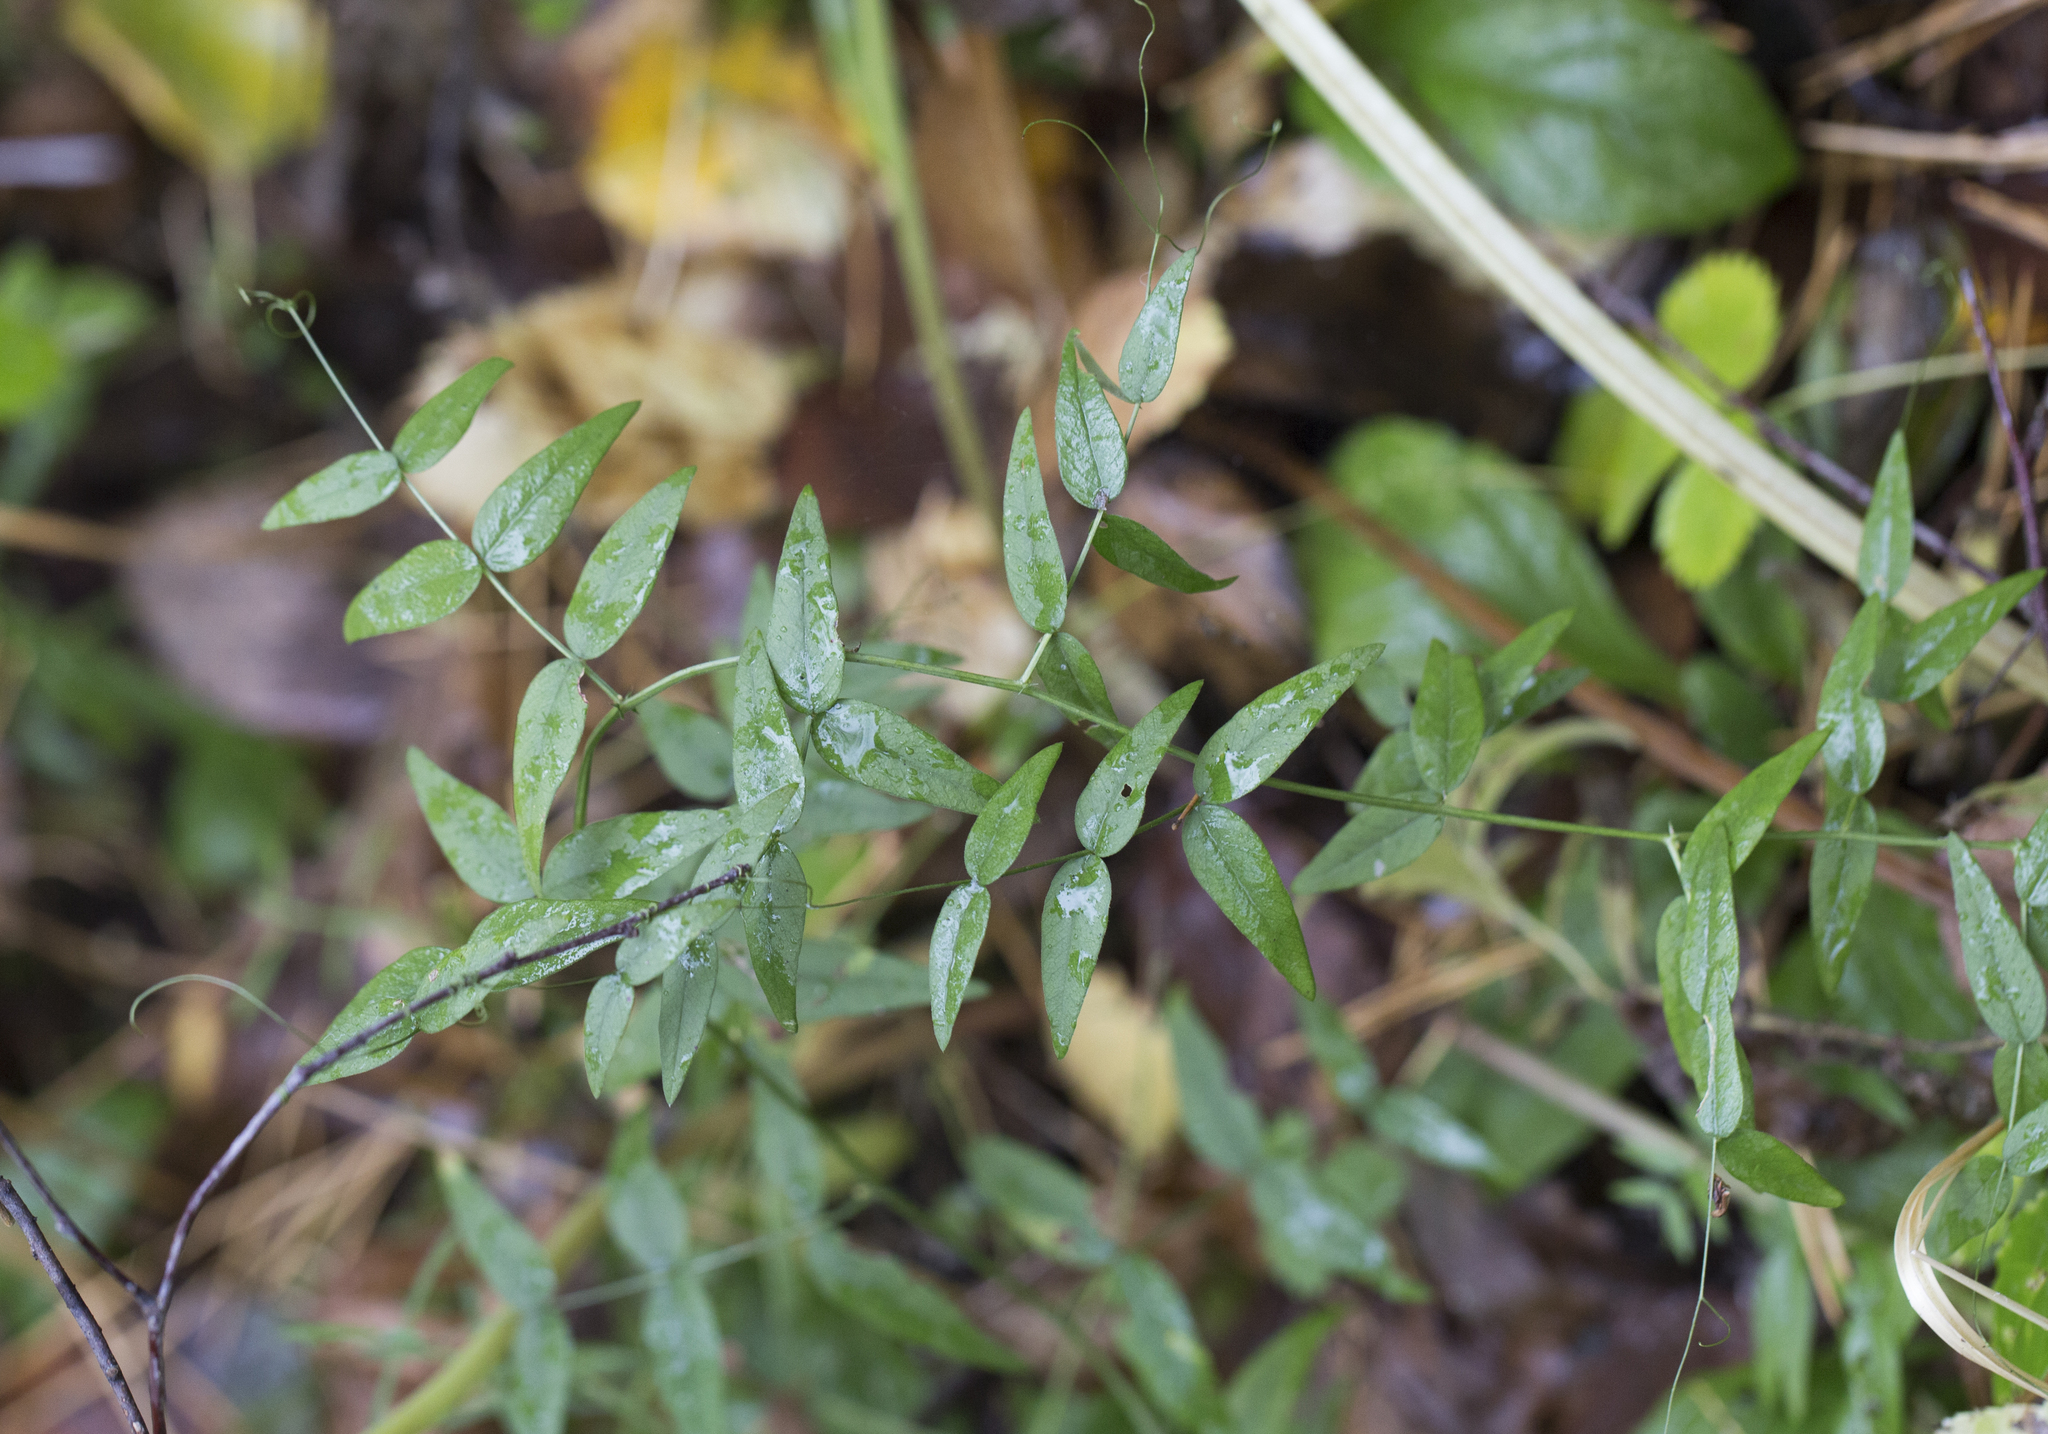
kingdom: Plantae
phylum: Tracheophyta
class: Magnoliopsida
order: Fabales
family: Fabaceae
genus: Vicia
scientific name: Vicia sepium
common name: Bush vetch
